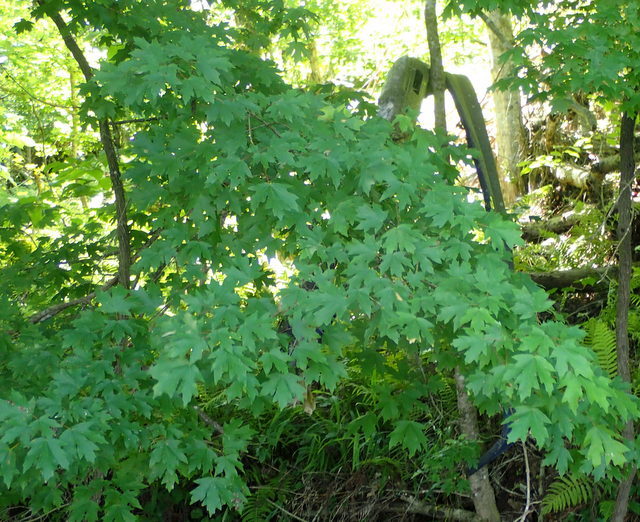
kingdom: Plantae
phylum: Tracheophyta
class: Magnoliopsida
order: Sapindales
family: Sapindaceae
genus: Acer
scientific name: Acer floridanum
